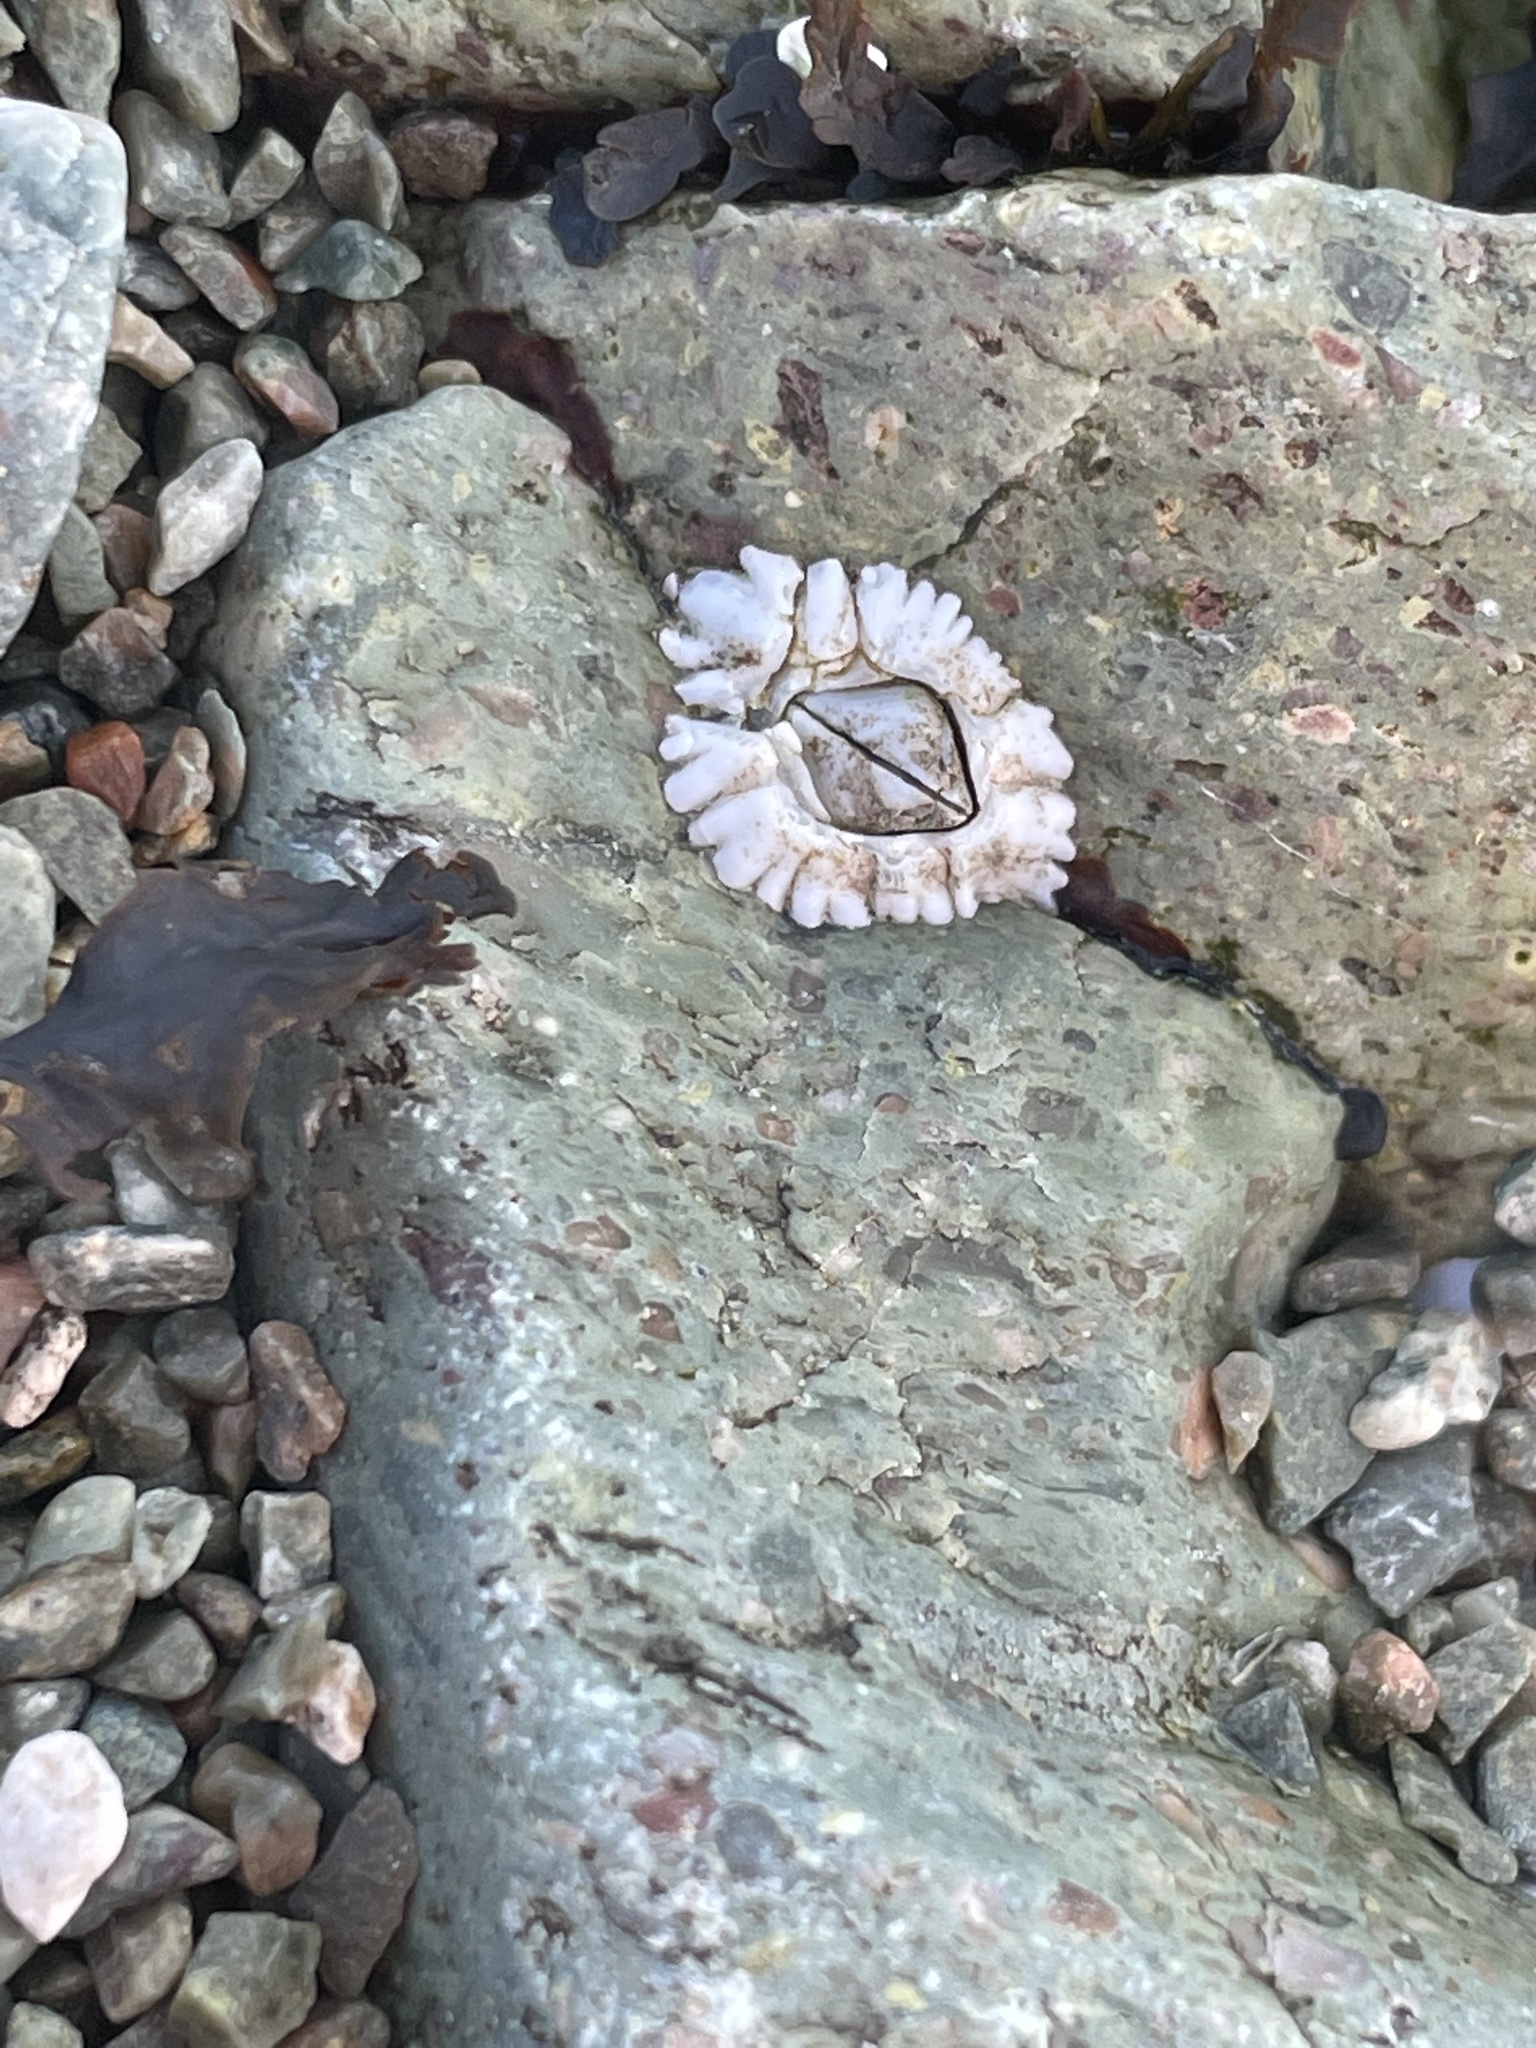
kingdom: Animalia
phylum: Arthropoda
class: Maxillopoda
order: Sessilia
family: Archaeobalanidae
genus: Semibalanus
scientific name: Semibalanus balanoides
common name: Acorn barnacle
